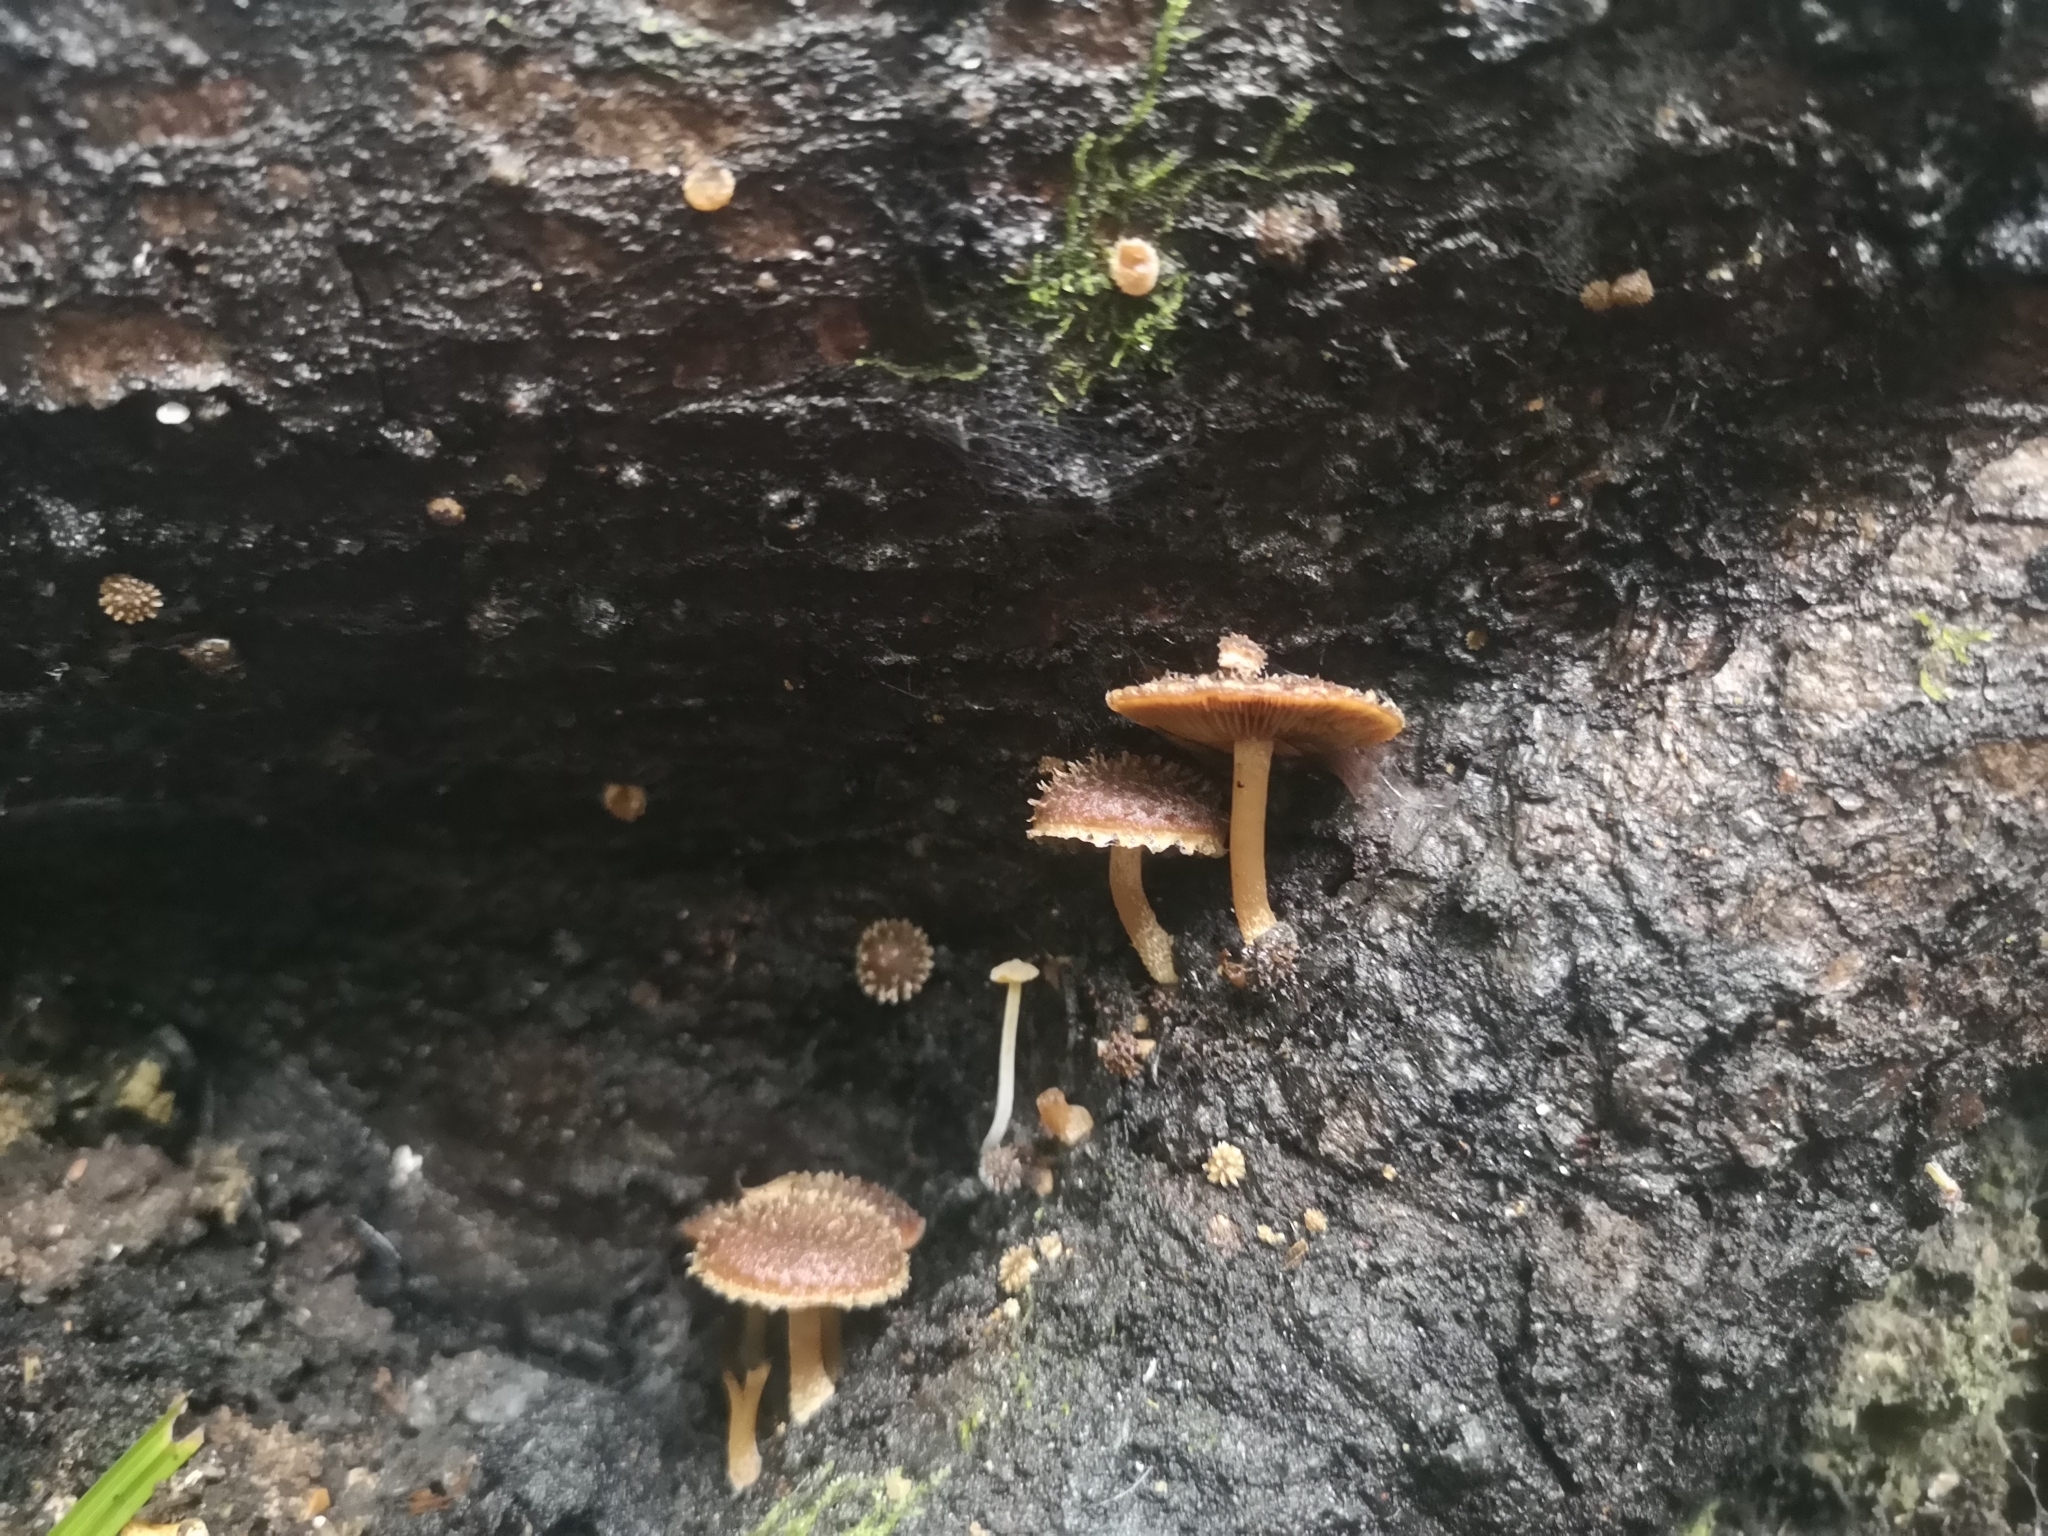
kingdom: Fungi
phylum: Basidiomycota
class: Agaricomycetes
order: Agaricales
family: Psathyrellaceae
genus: Psathyrella
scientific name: Psathyrella echinata
